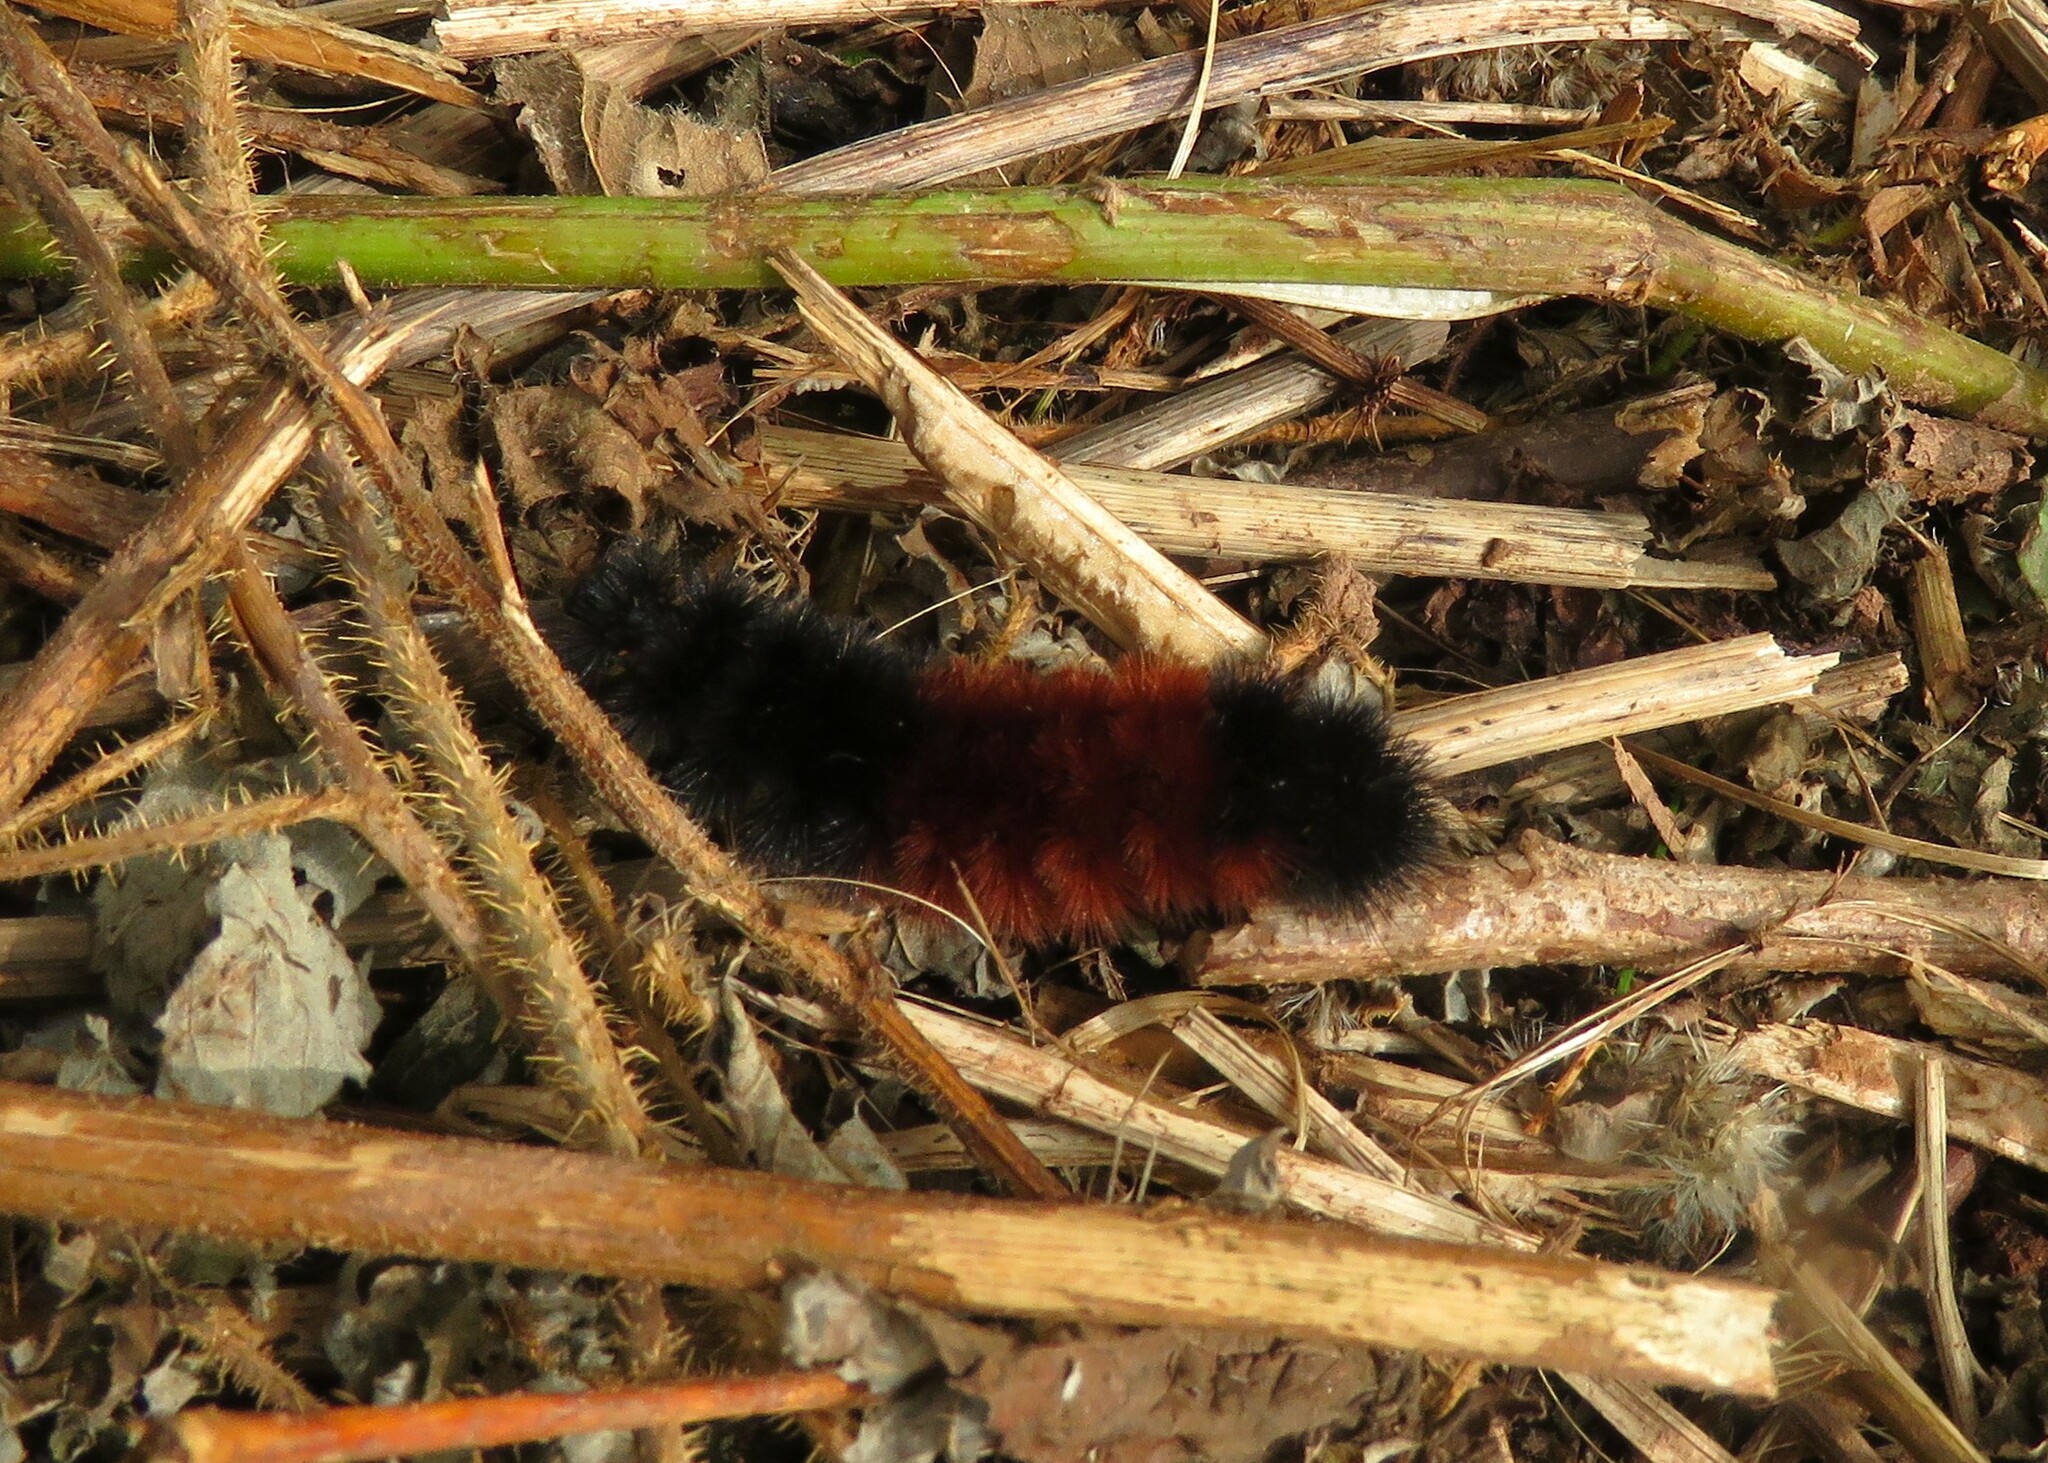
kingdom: Animalia
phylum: Arthropoda
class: Insecta
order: Lepidoptera
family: Erebidae
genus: Pyrrharctia
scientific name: Pyrrharctia isabella
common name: Isabella tiger moth
